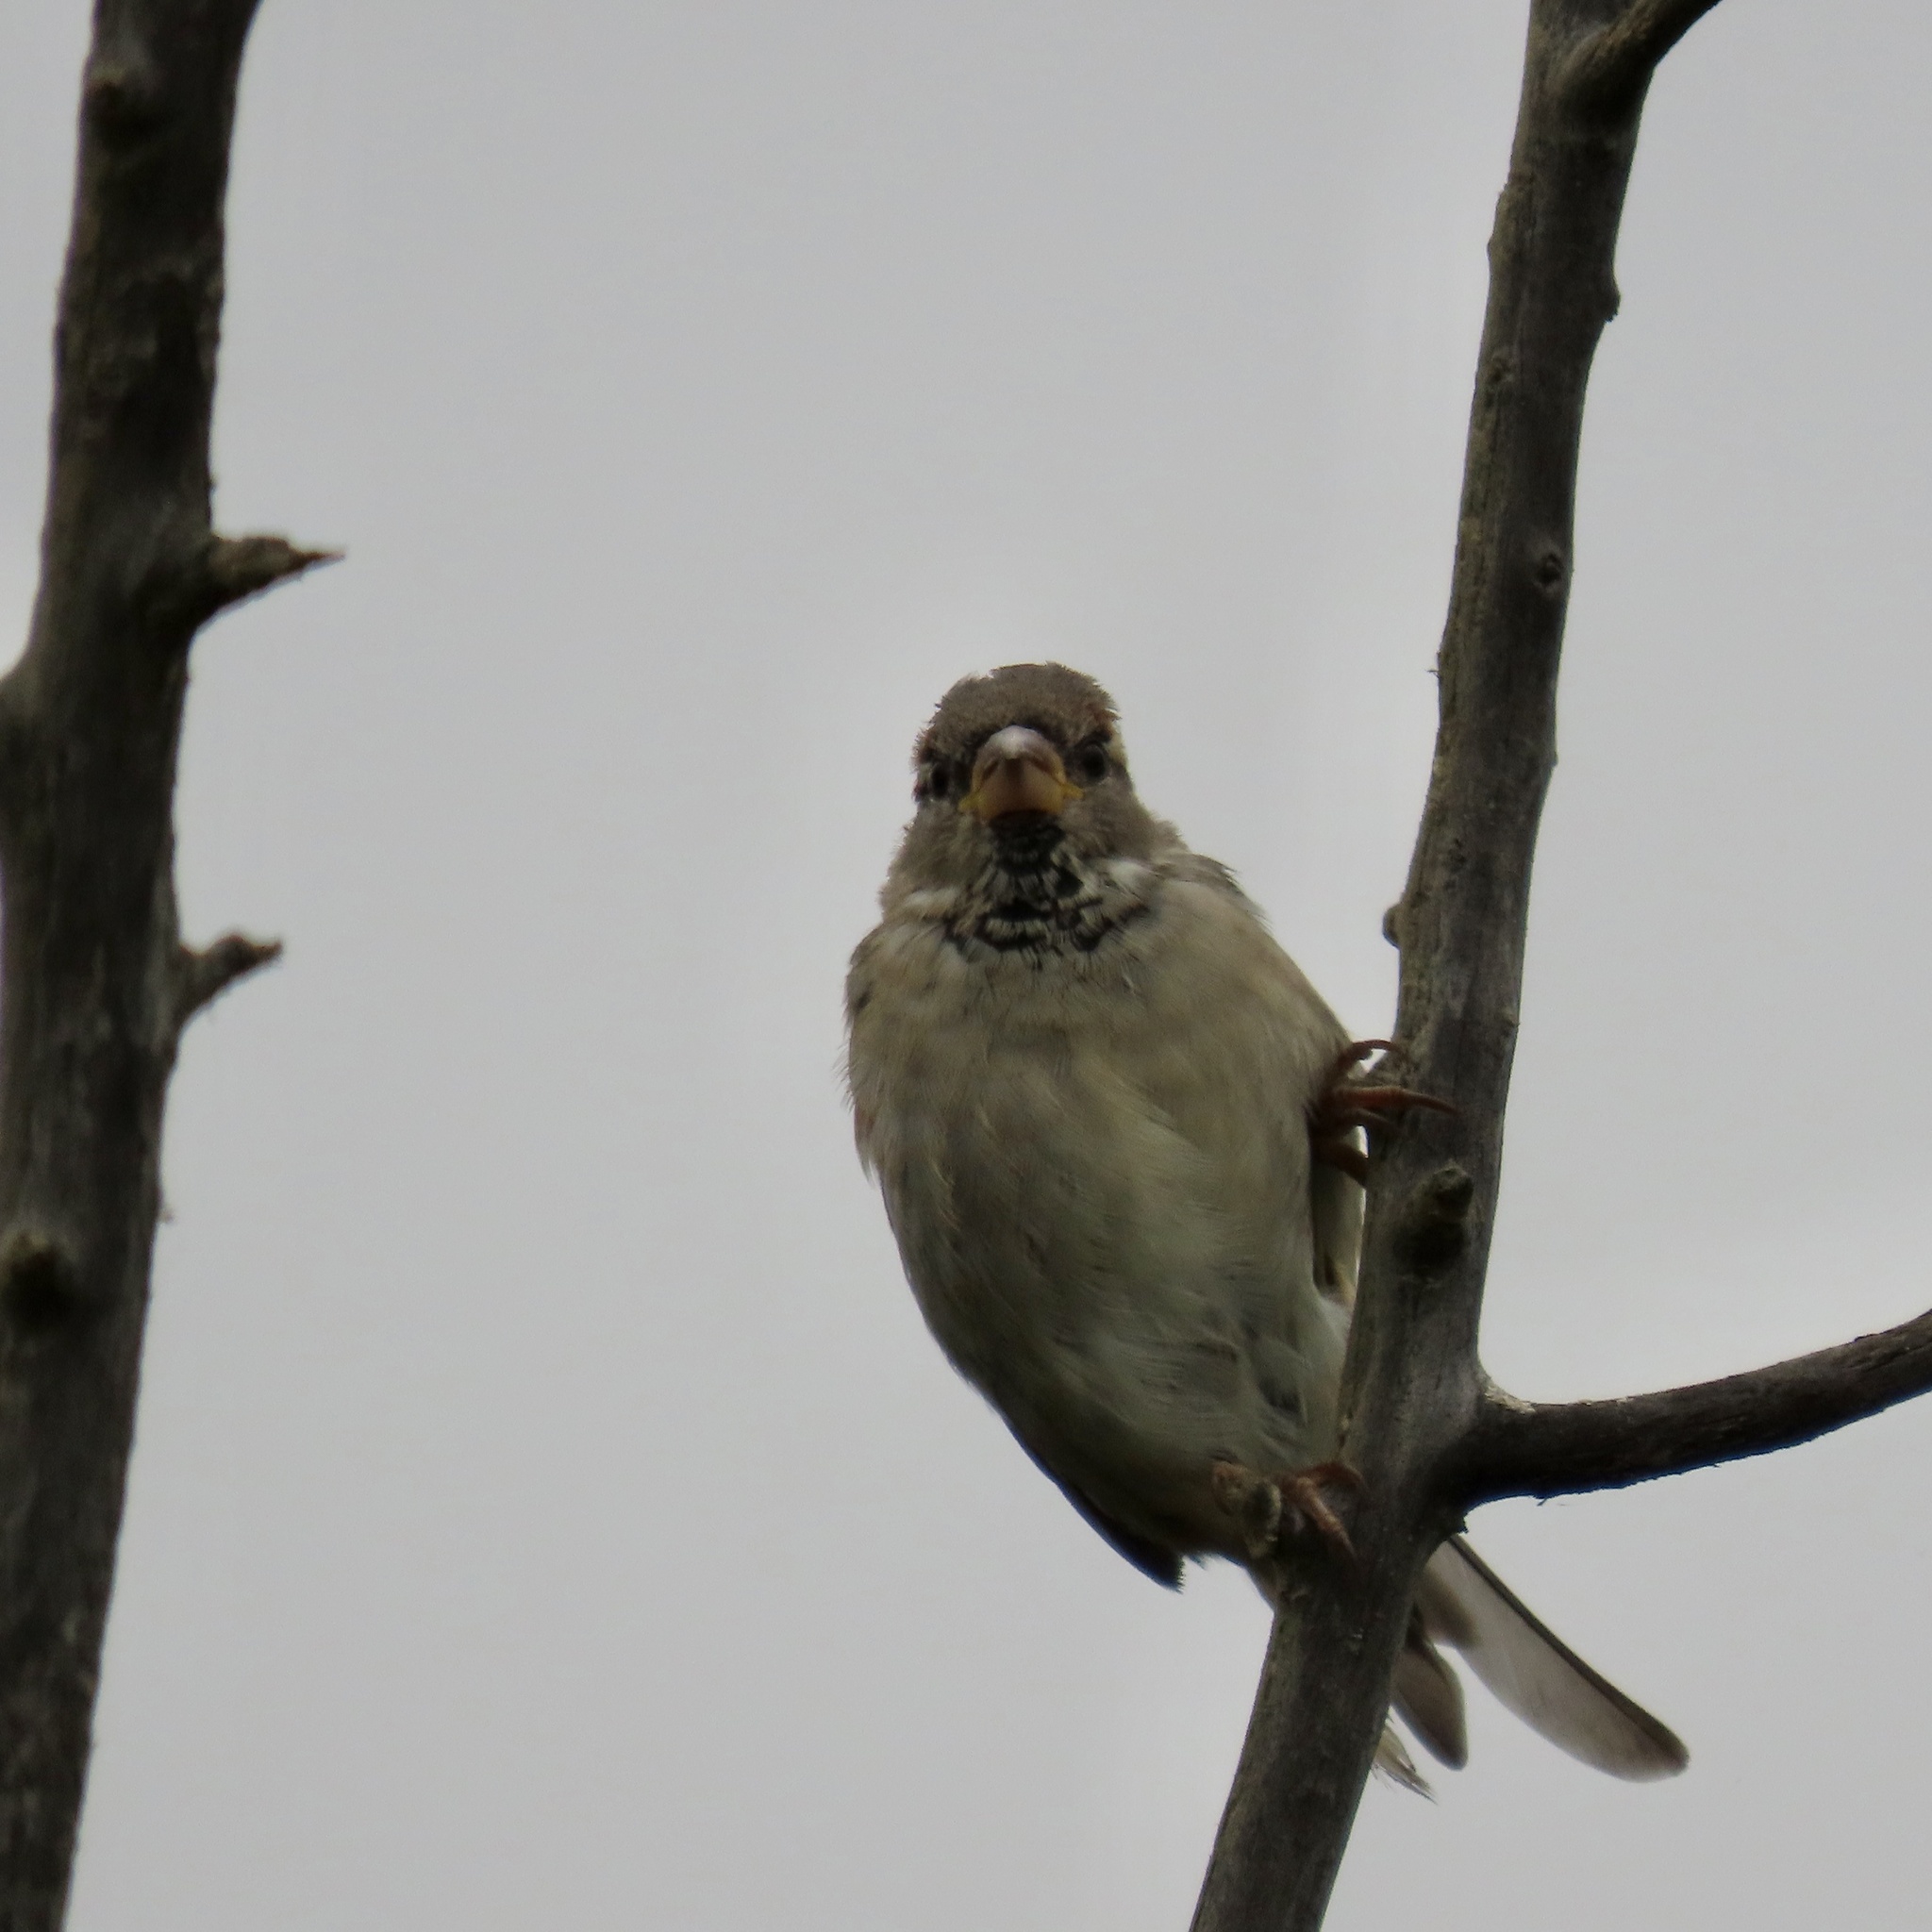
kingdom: Animalia
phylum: Chordata
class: Aves
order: Passeriformes
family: Passeridae
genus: Passer
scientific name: Passer domesticus
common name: House sparrow
